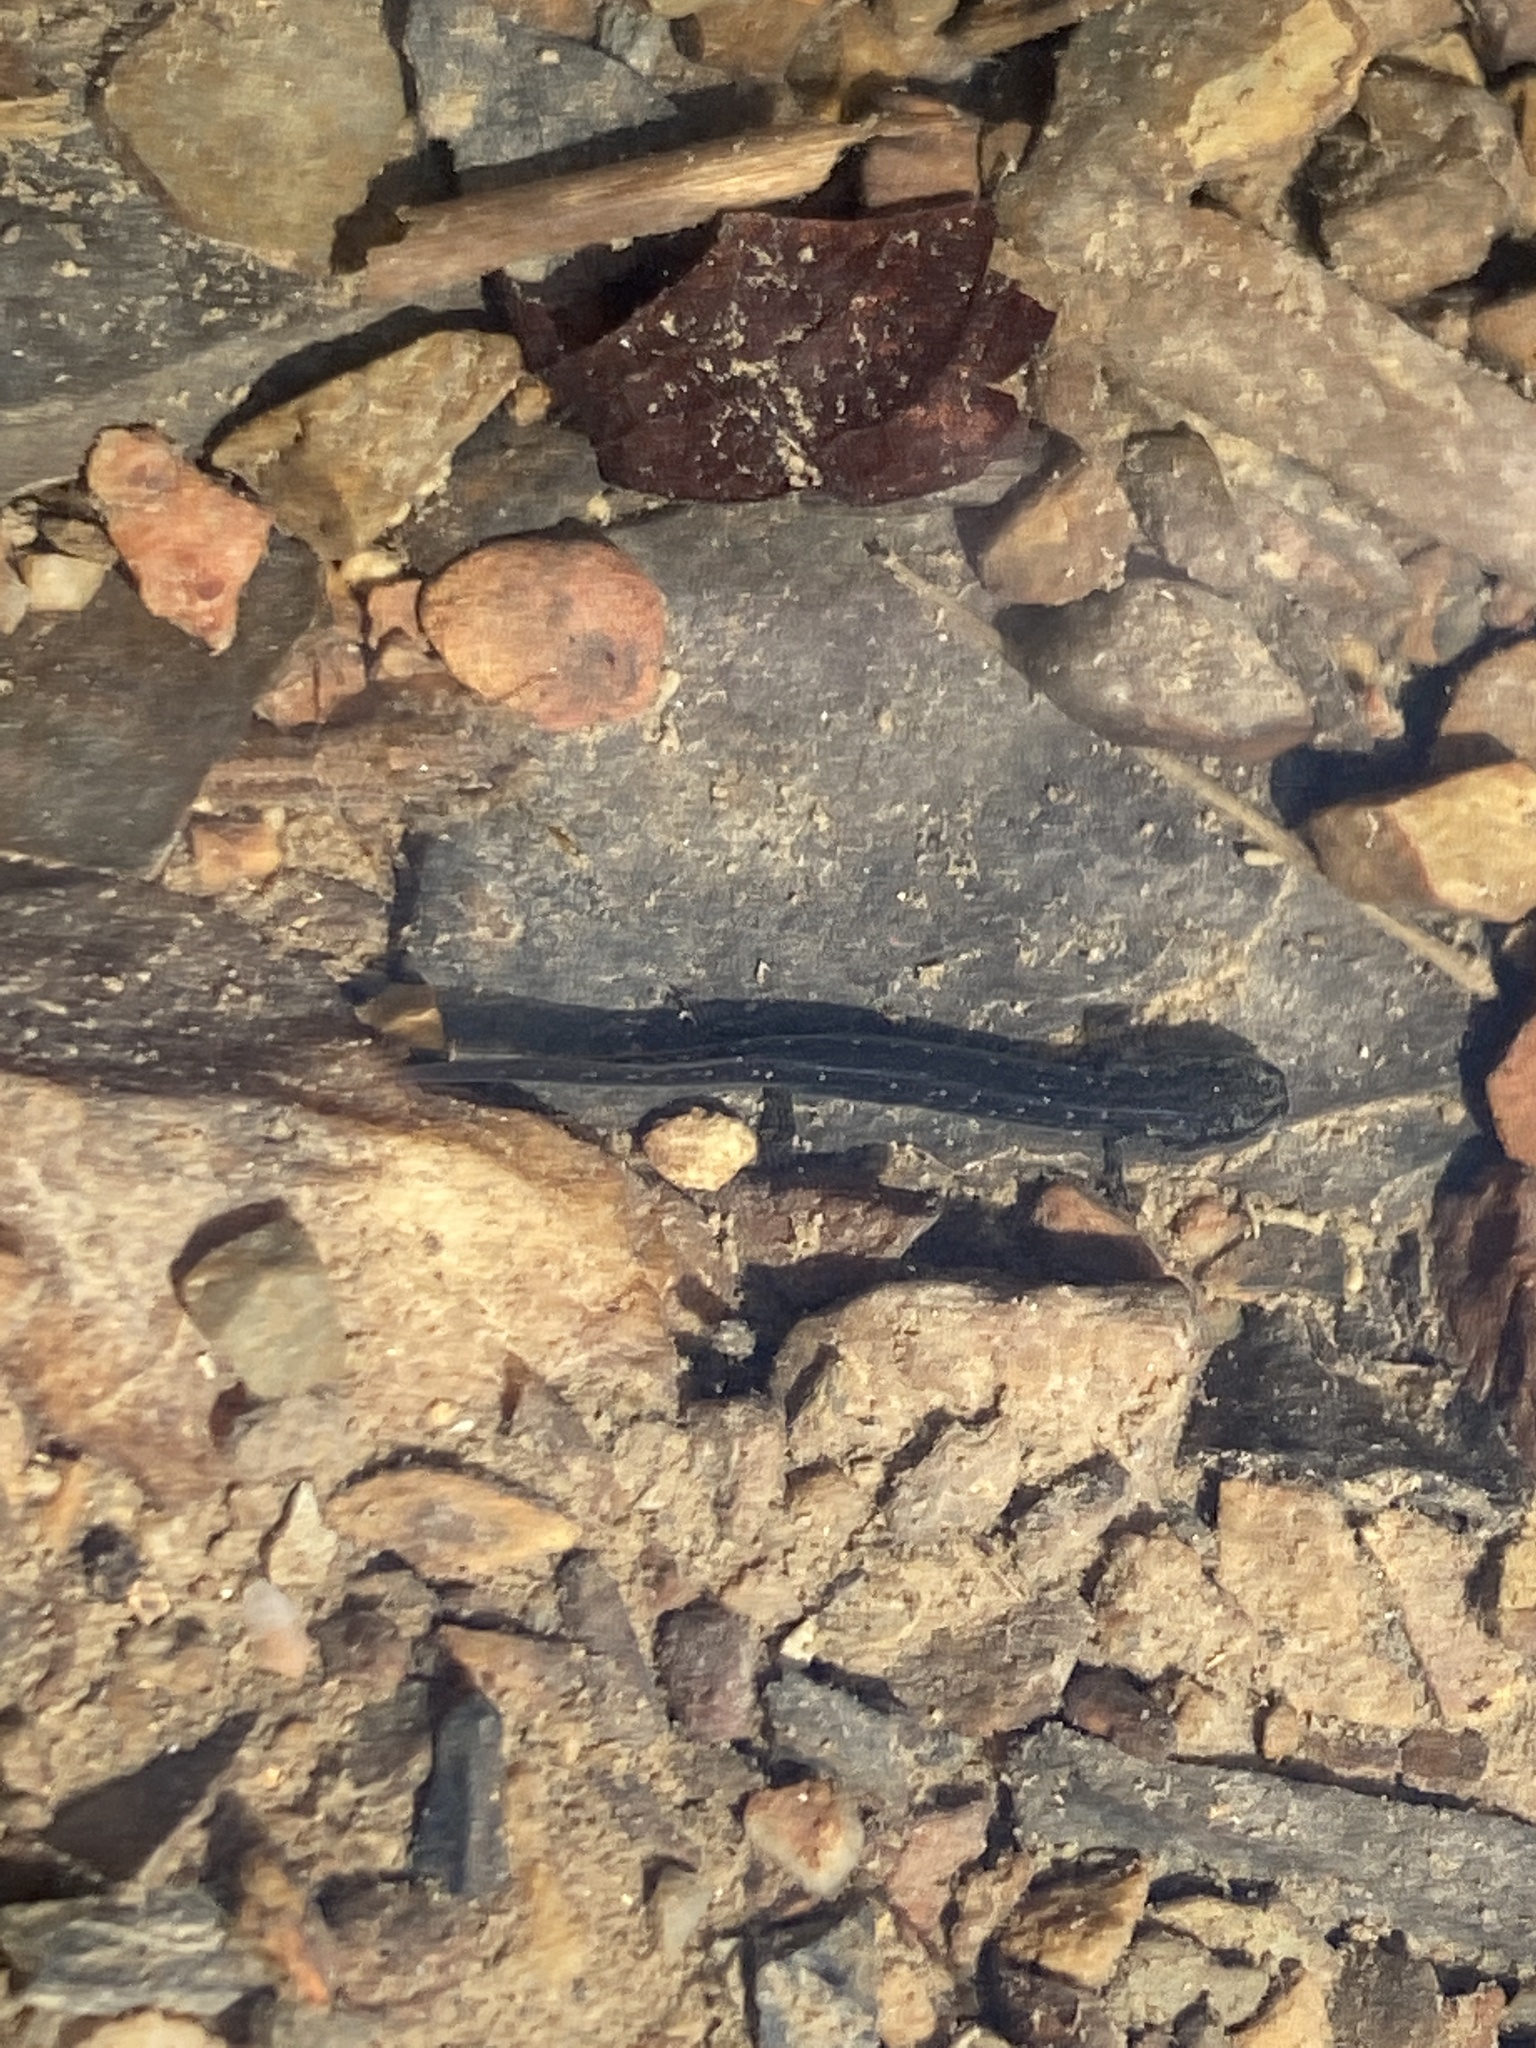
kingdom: Animalia
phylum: Chordata
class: Amphibia
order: Caudata
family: Plethodontidae
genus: Desmognathus
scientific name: Desmognathus brimleyorum
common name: Ouachita dusky salamander
